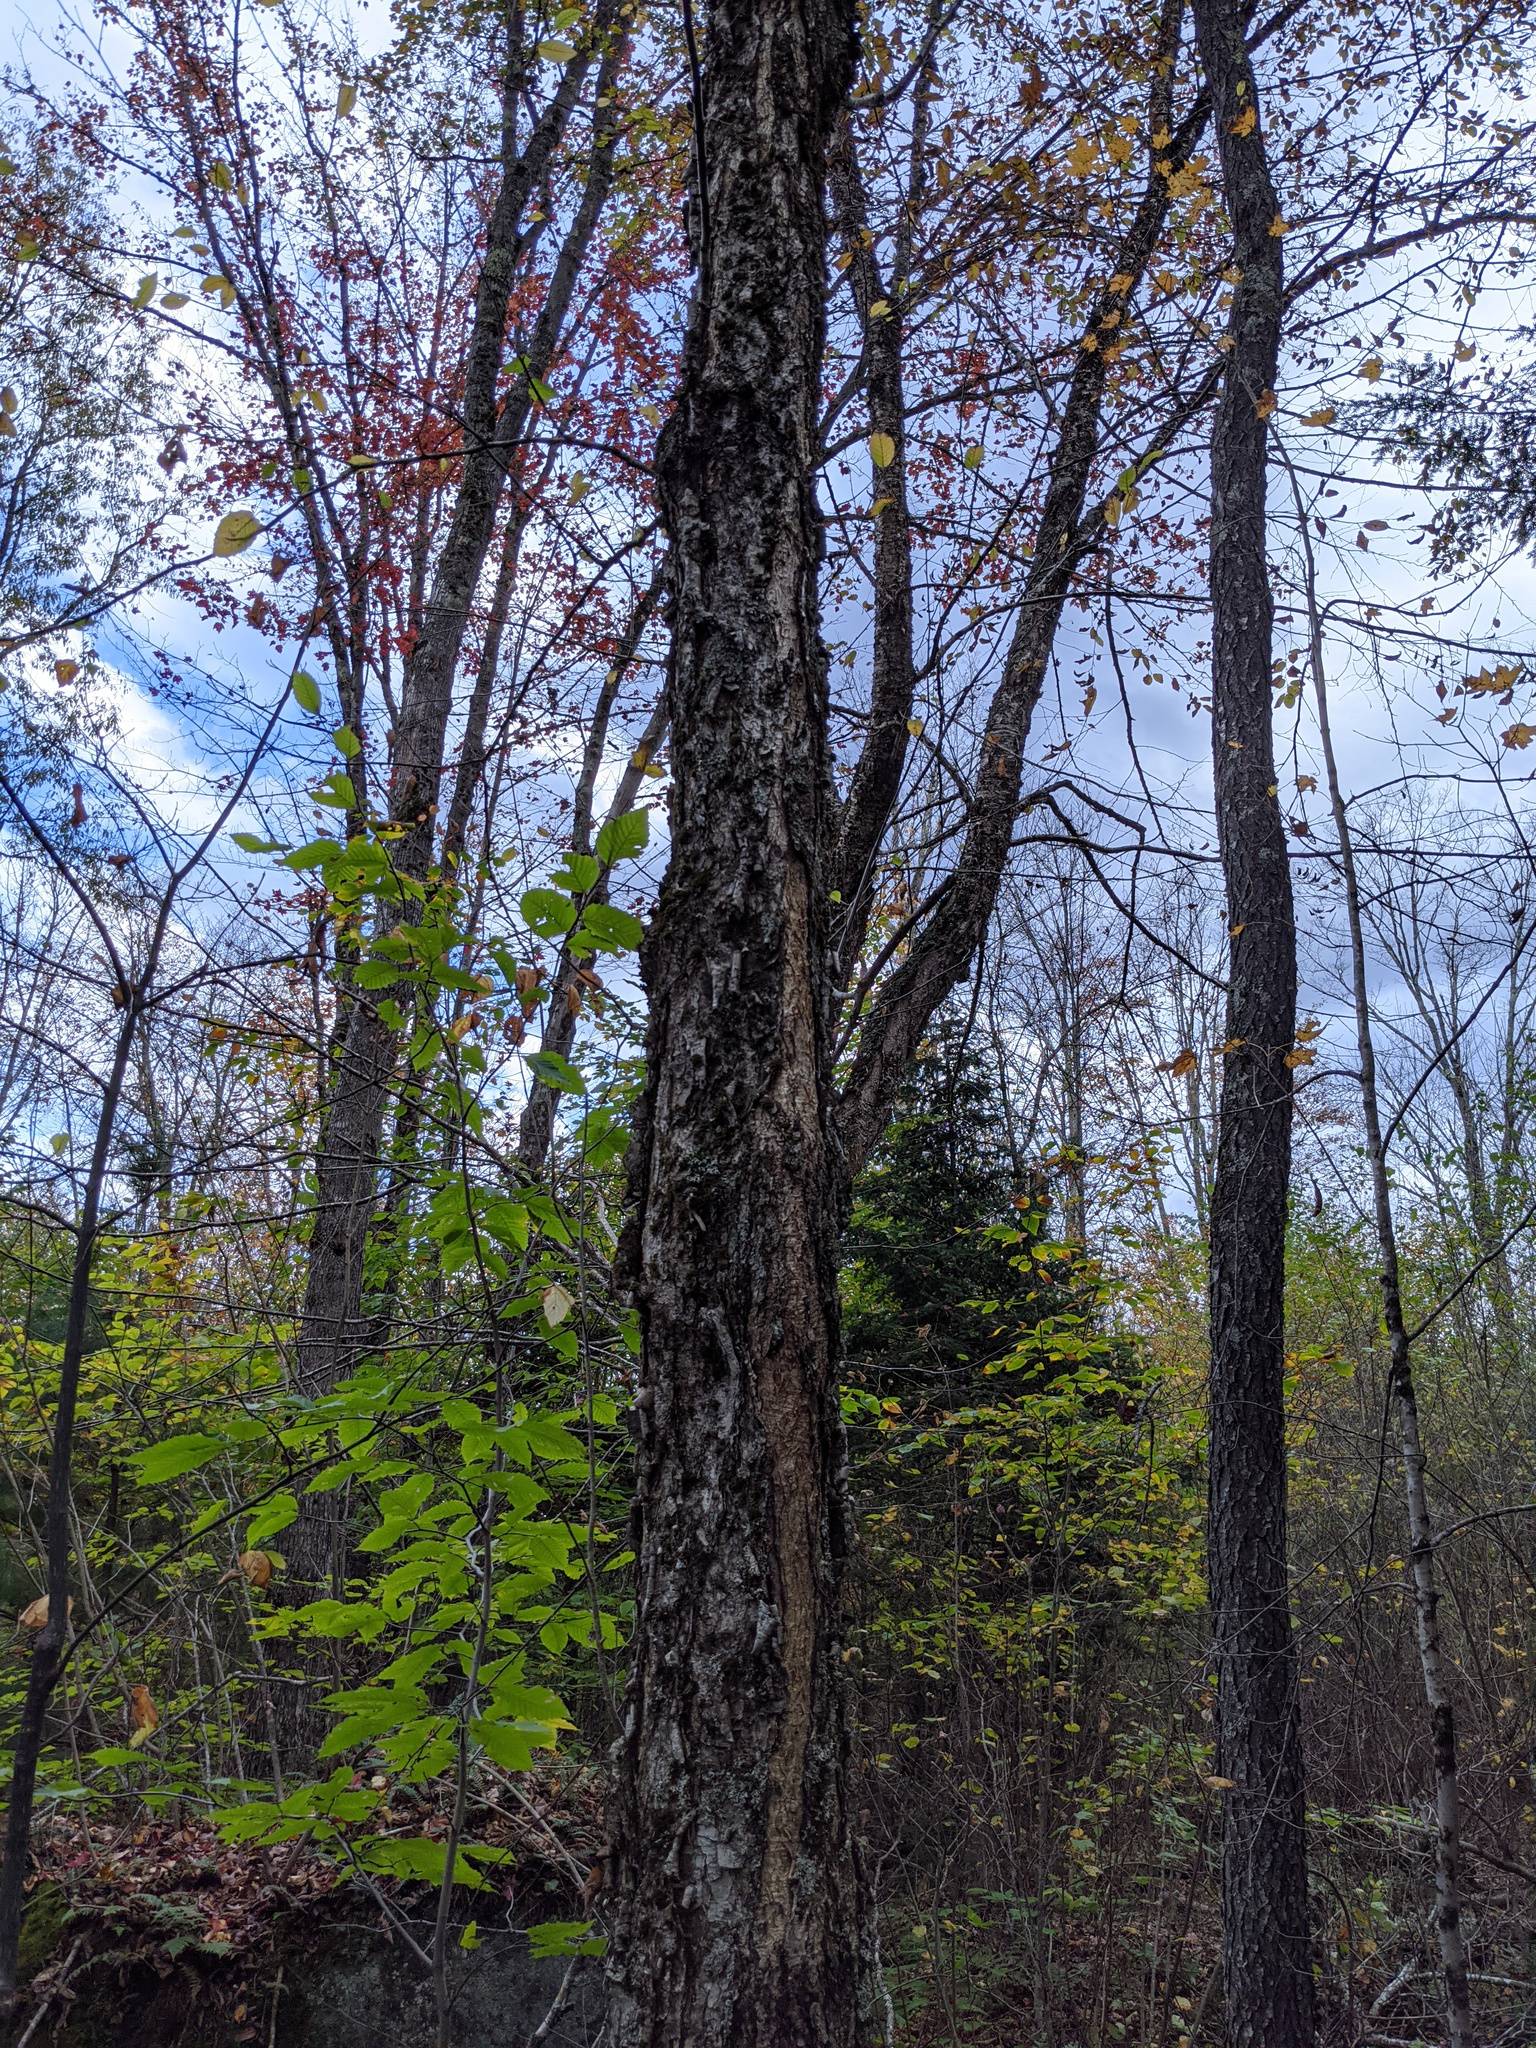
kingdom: Plantae
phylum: Tracheophyta
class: Magnoliopsida
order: Fagales
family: Betulaceae
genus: Betula
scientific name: Betula alleghaniensis
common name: Yellow birch
